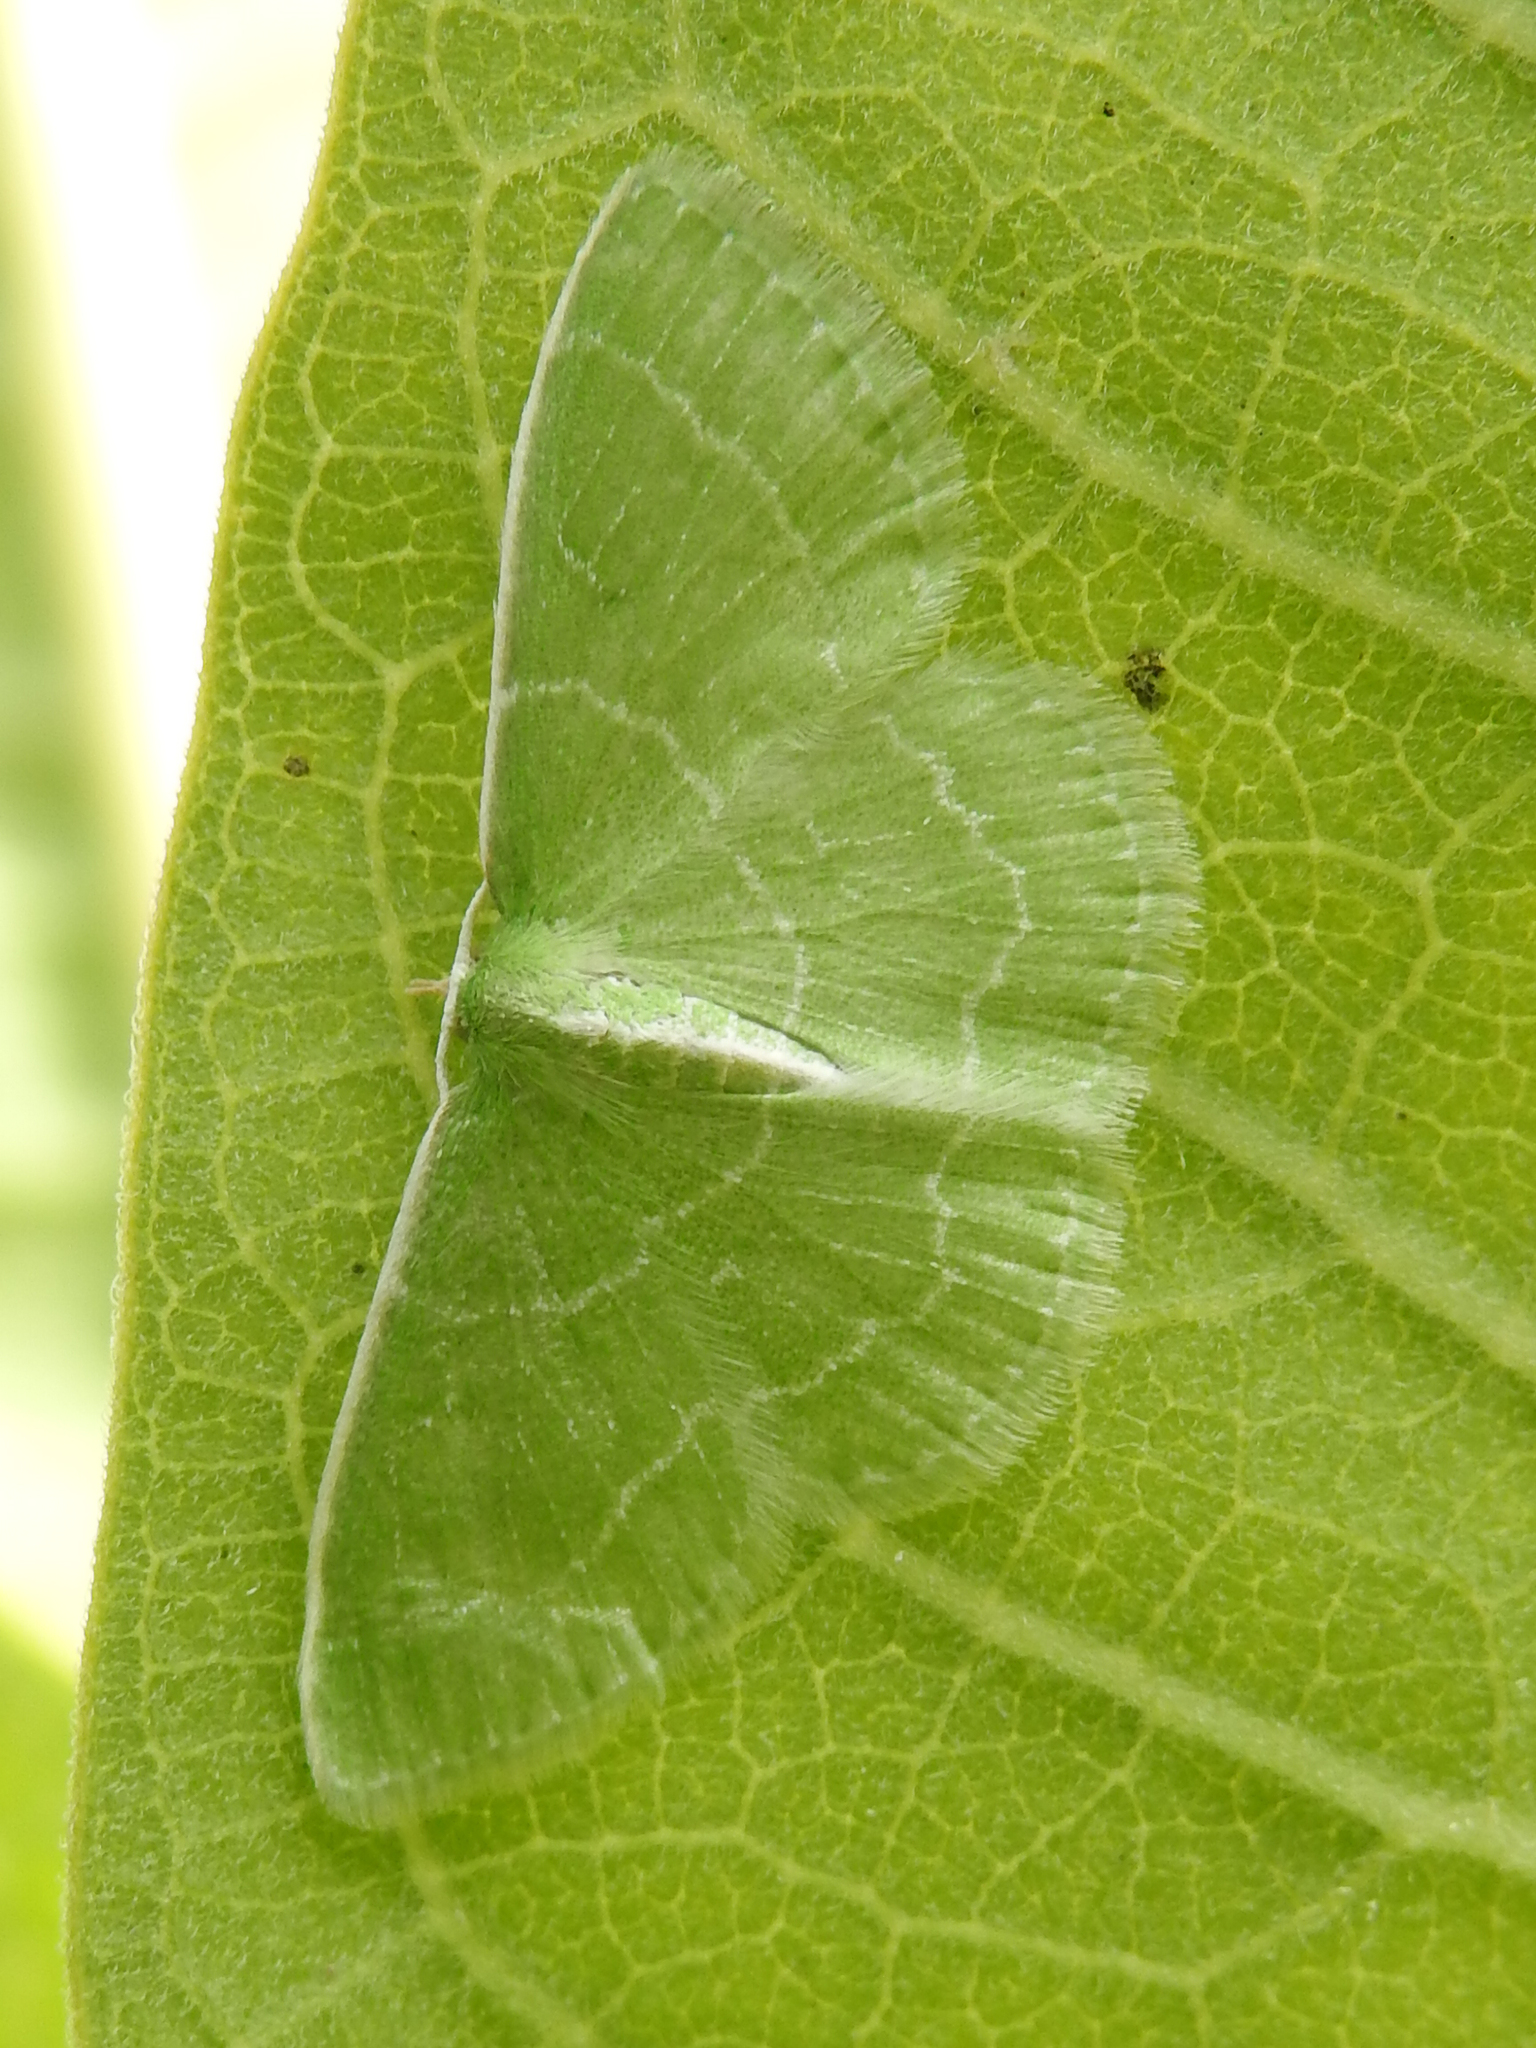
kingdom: Animalia
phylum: Arthropoda
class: Insecta
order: Lepidoptera
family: Geometridae
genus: Synchlora
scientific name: Synchlora aerata
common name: Wavy-lined emerald
